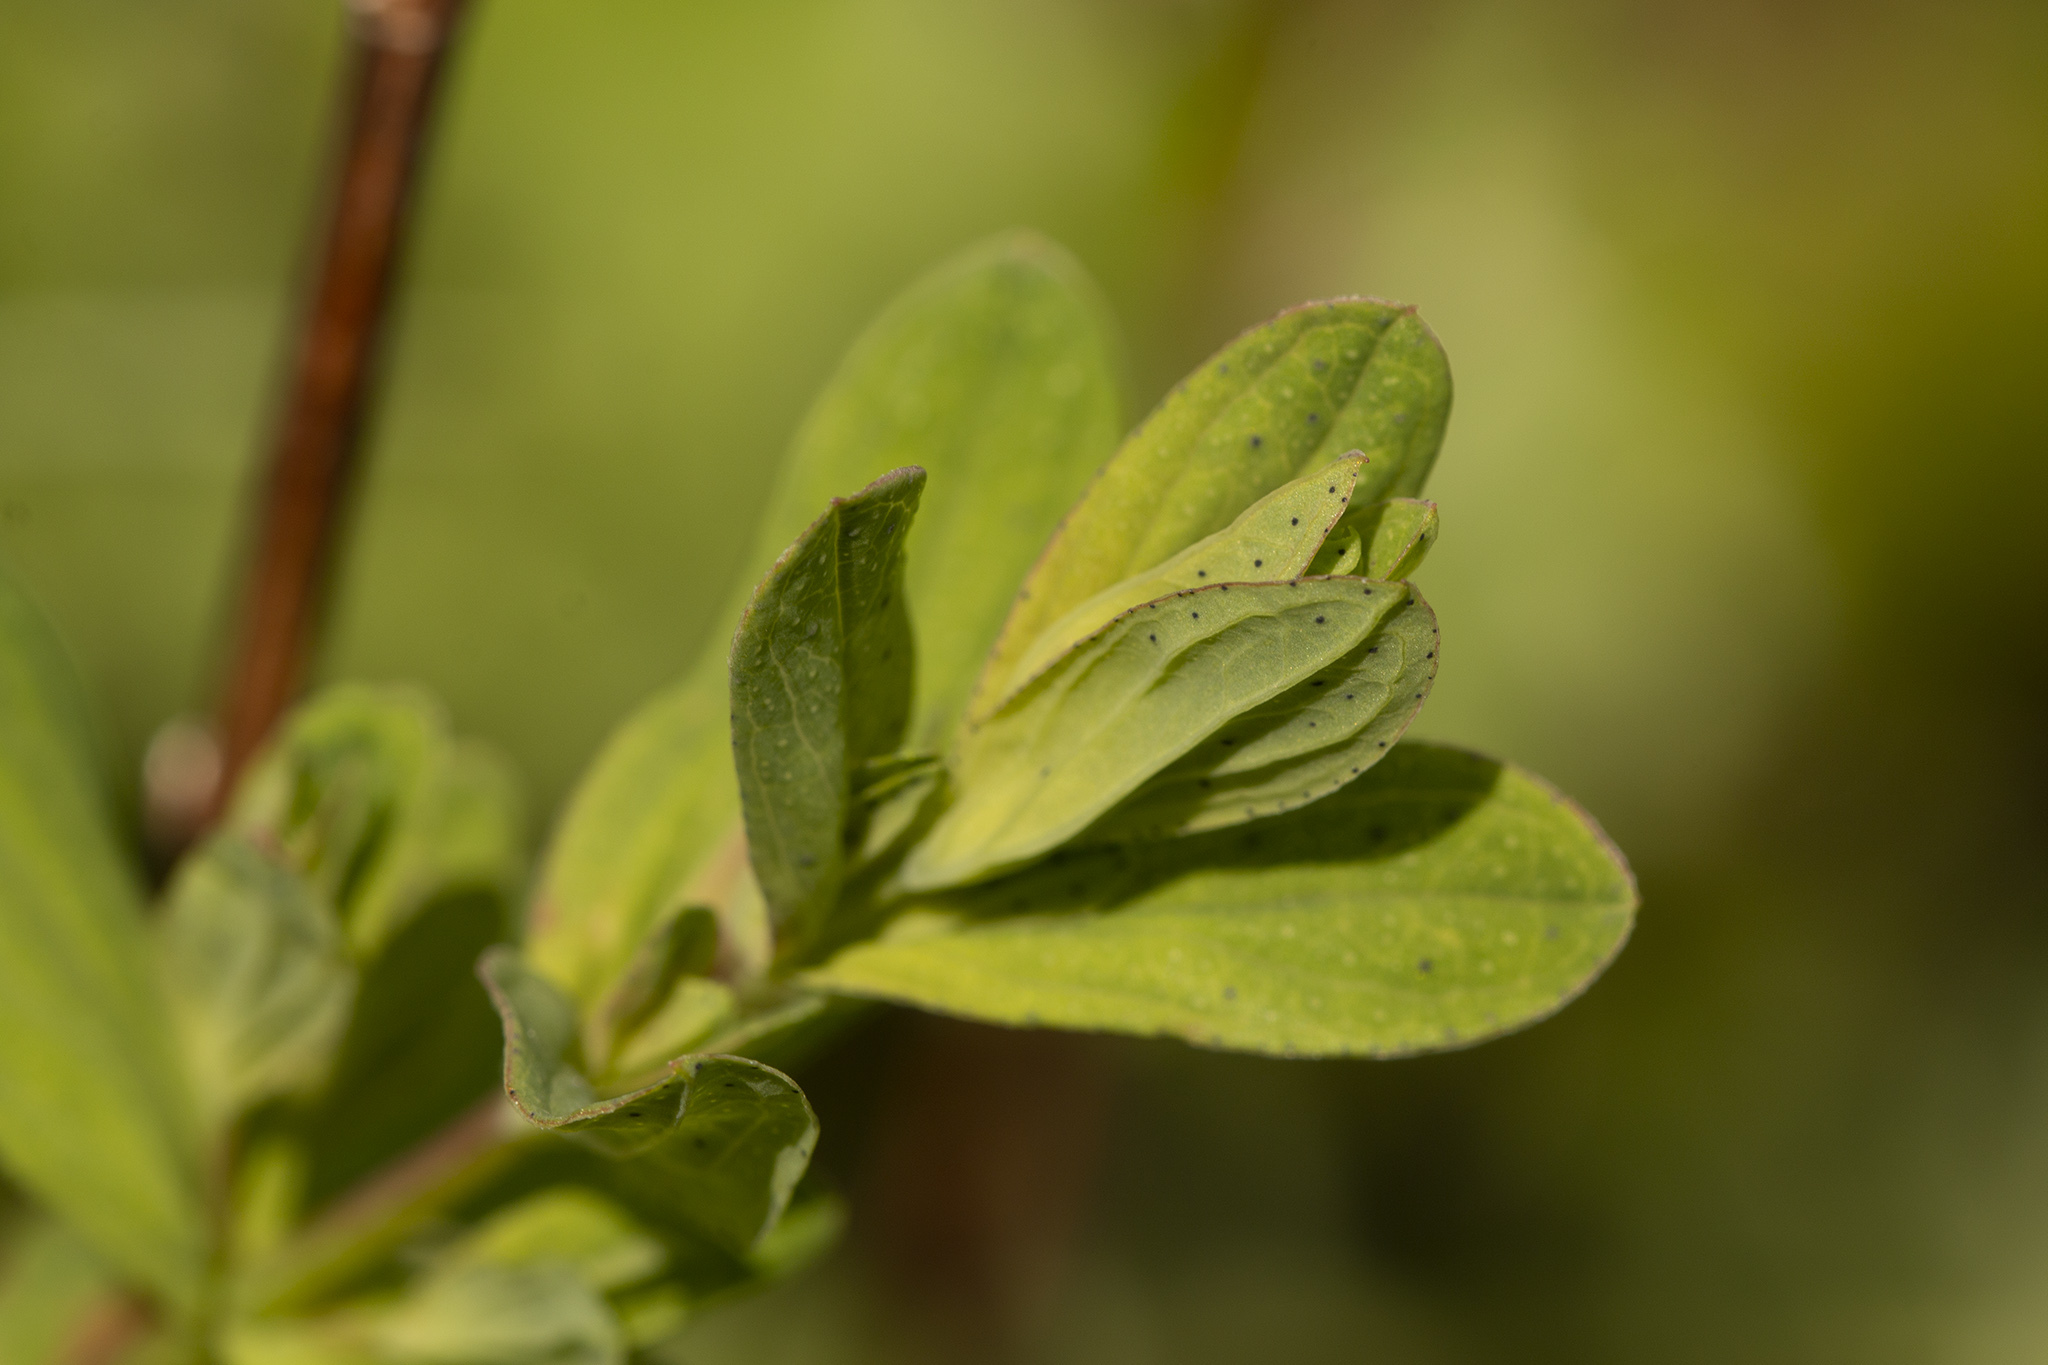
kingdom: Plantae
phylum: Tracheophyta
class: Magnoliopsida
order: Malpighiales
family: Hypericaceae
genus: Hypericum
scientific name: Hypericum perforatum
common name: Common st. johnswort
